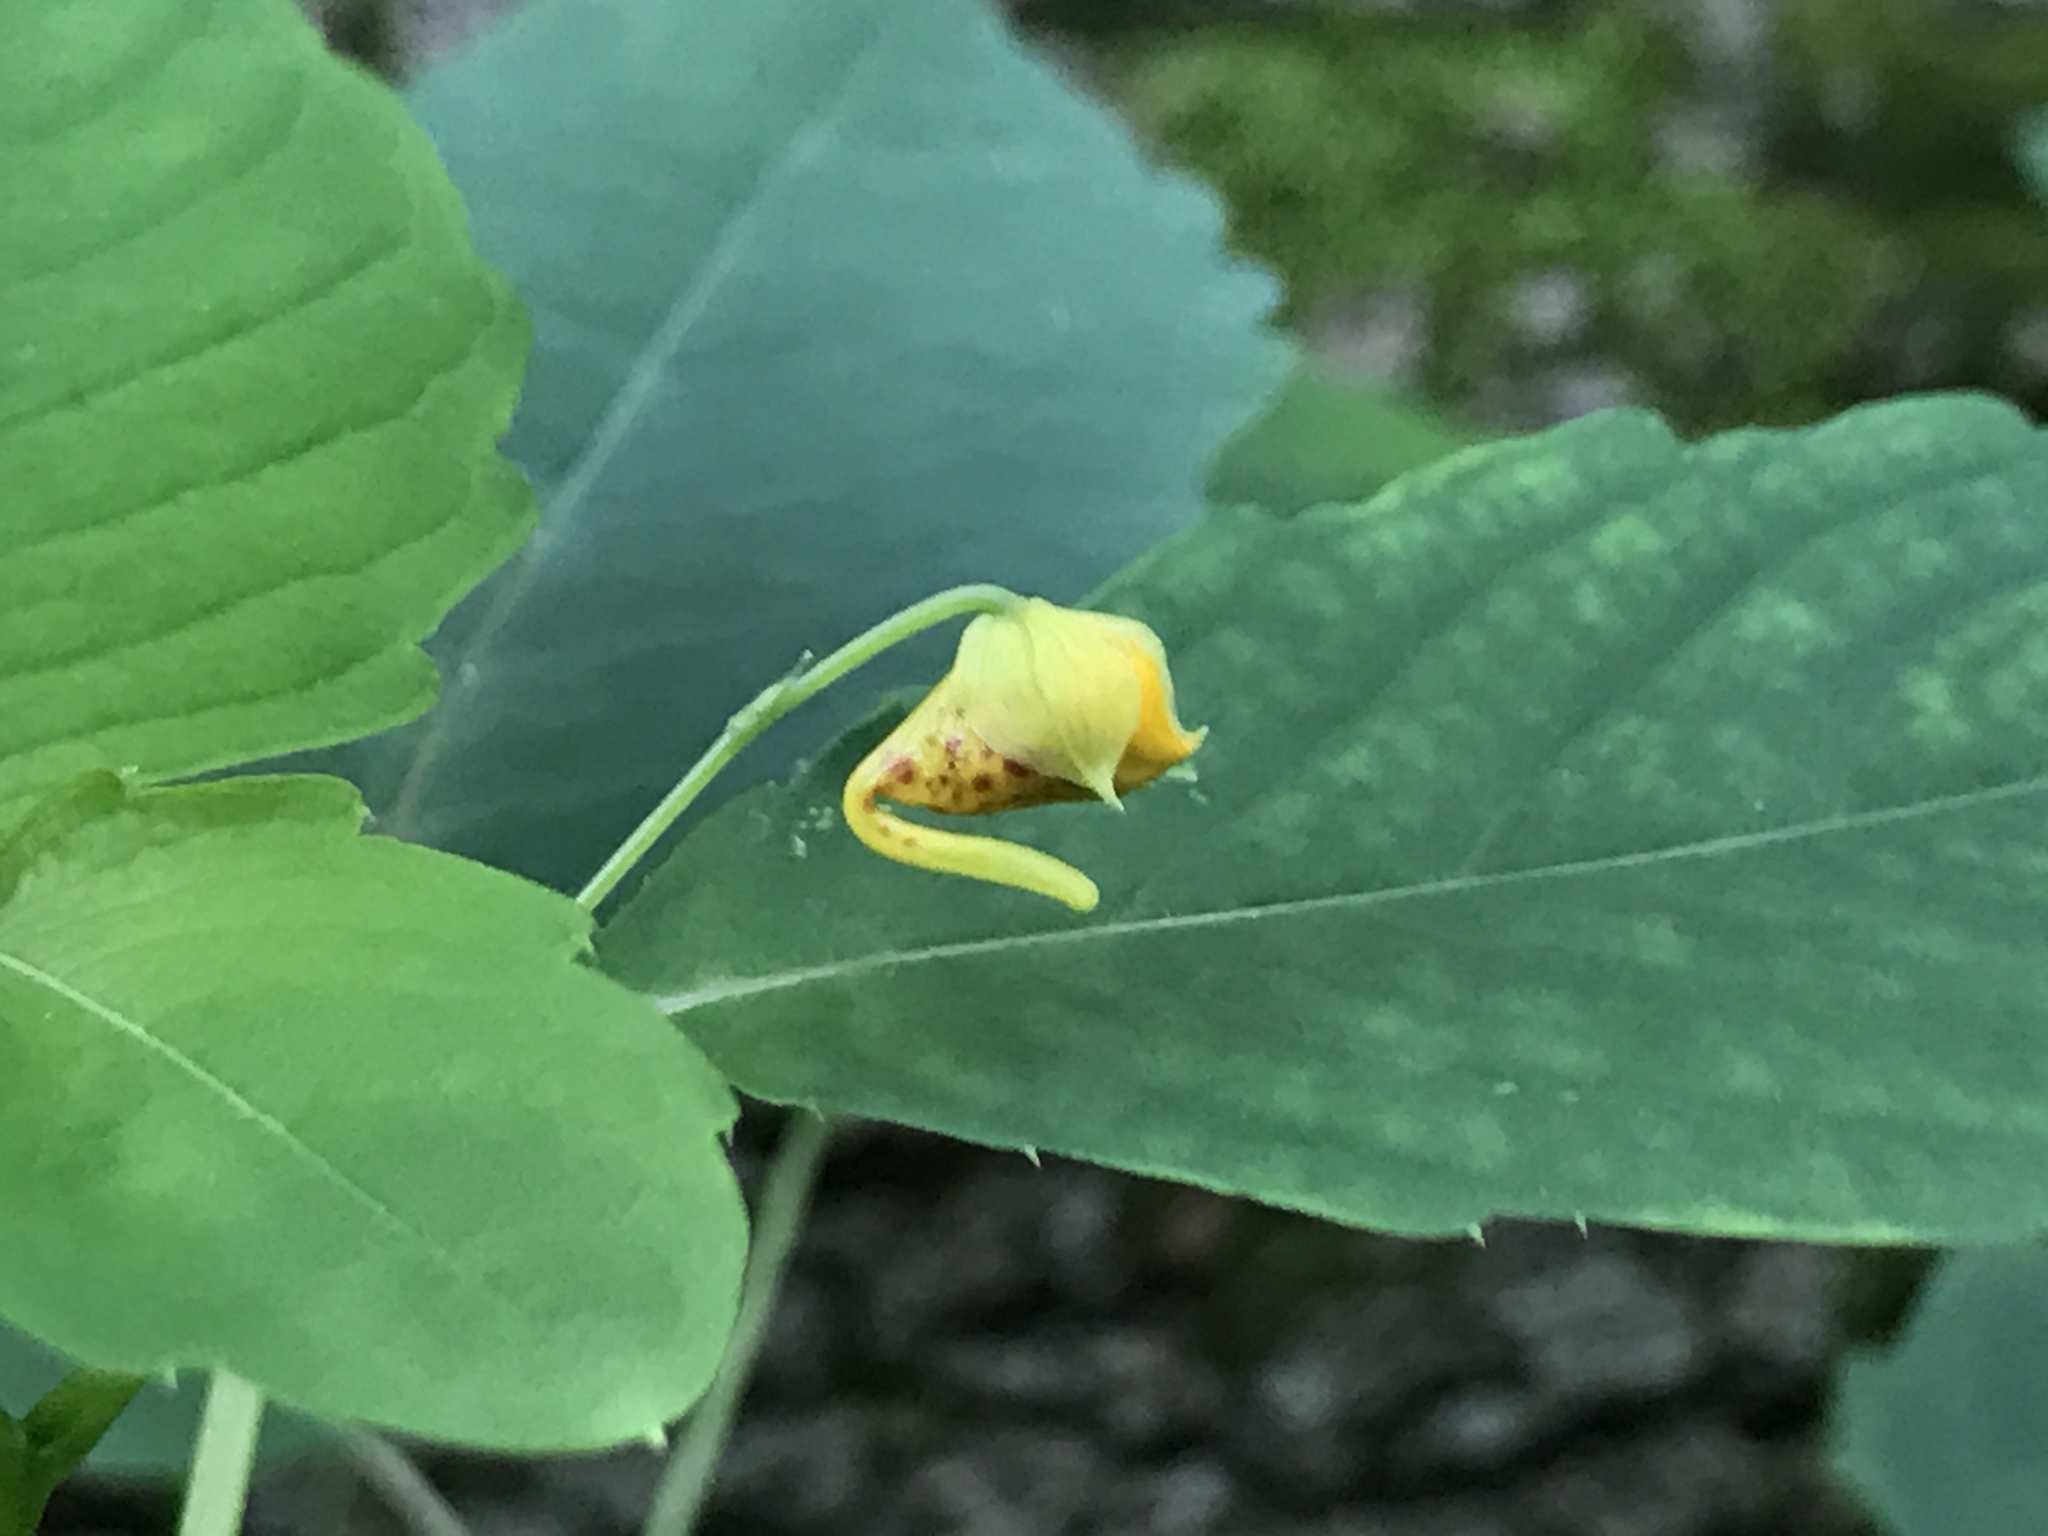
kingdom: Plantae
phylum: Tracheophyta
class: Magnoliopsida
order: Ericales
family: Balsaminaceae
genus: Impatiens
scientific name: Impatiens capensis
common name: Orange balsam
